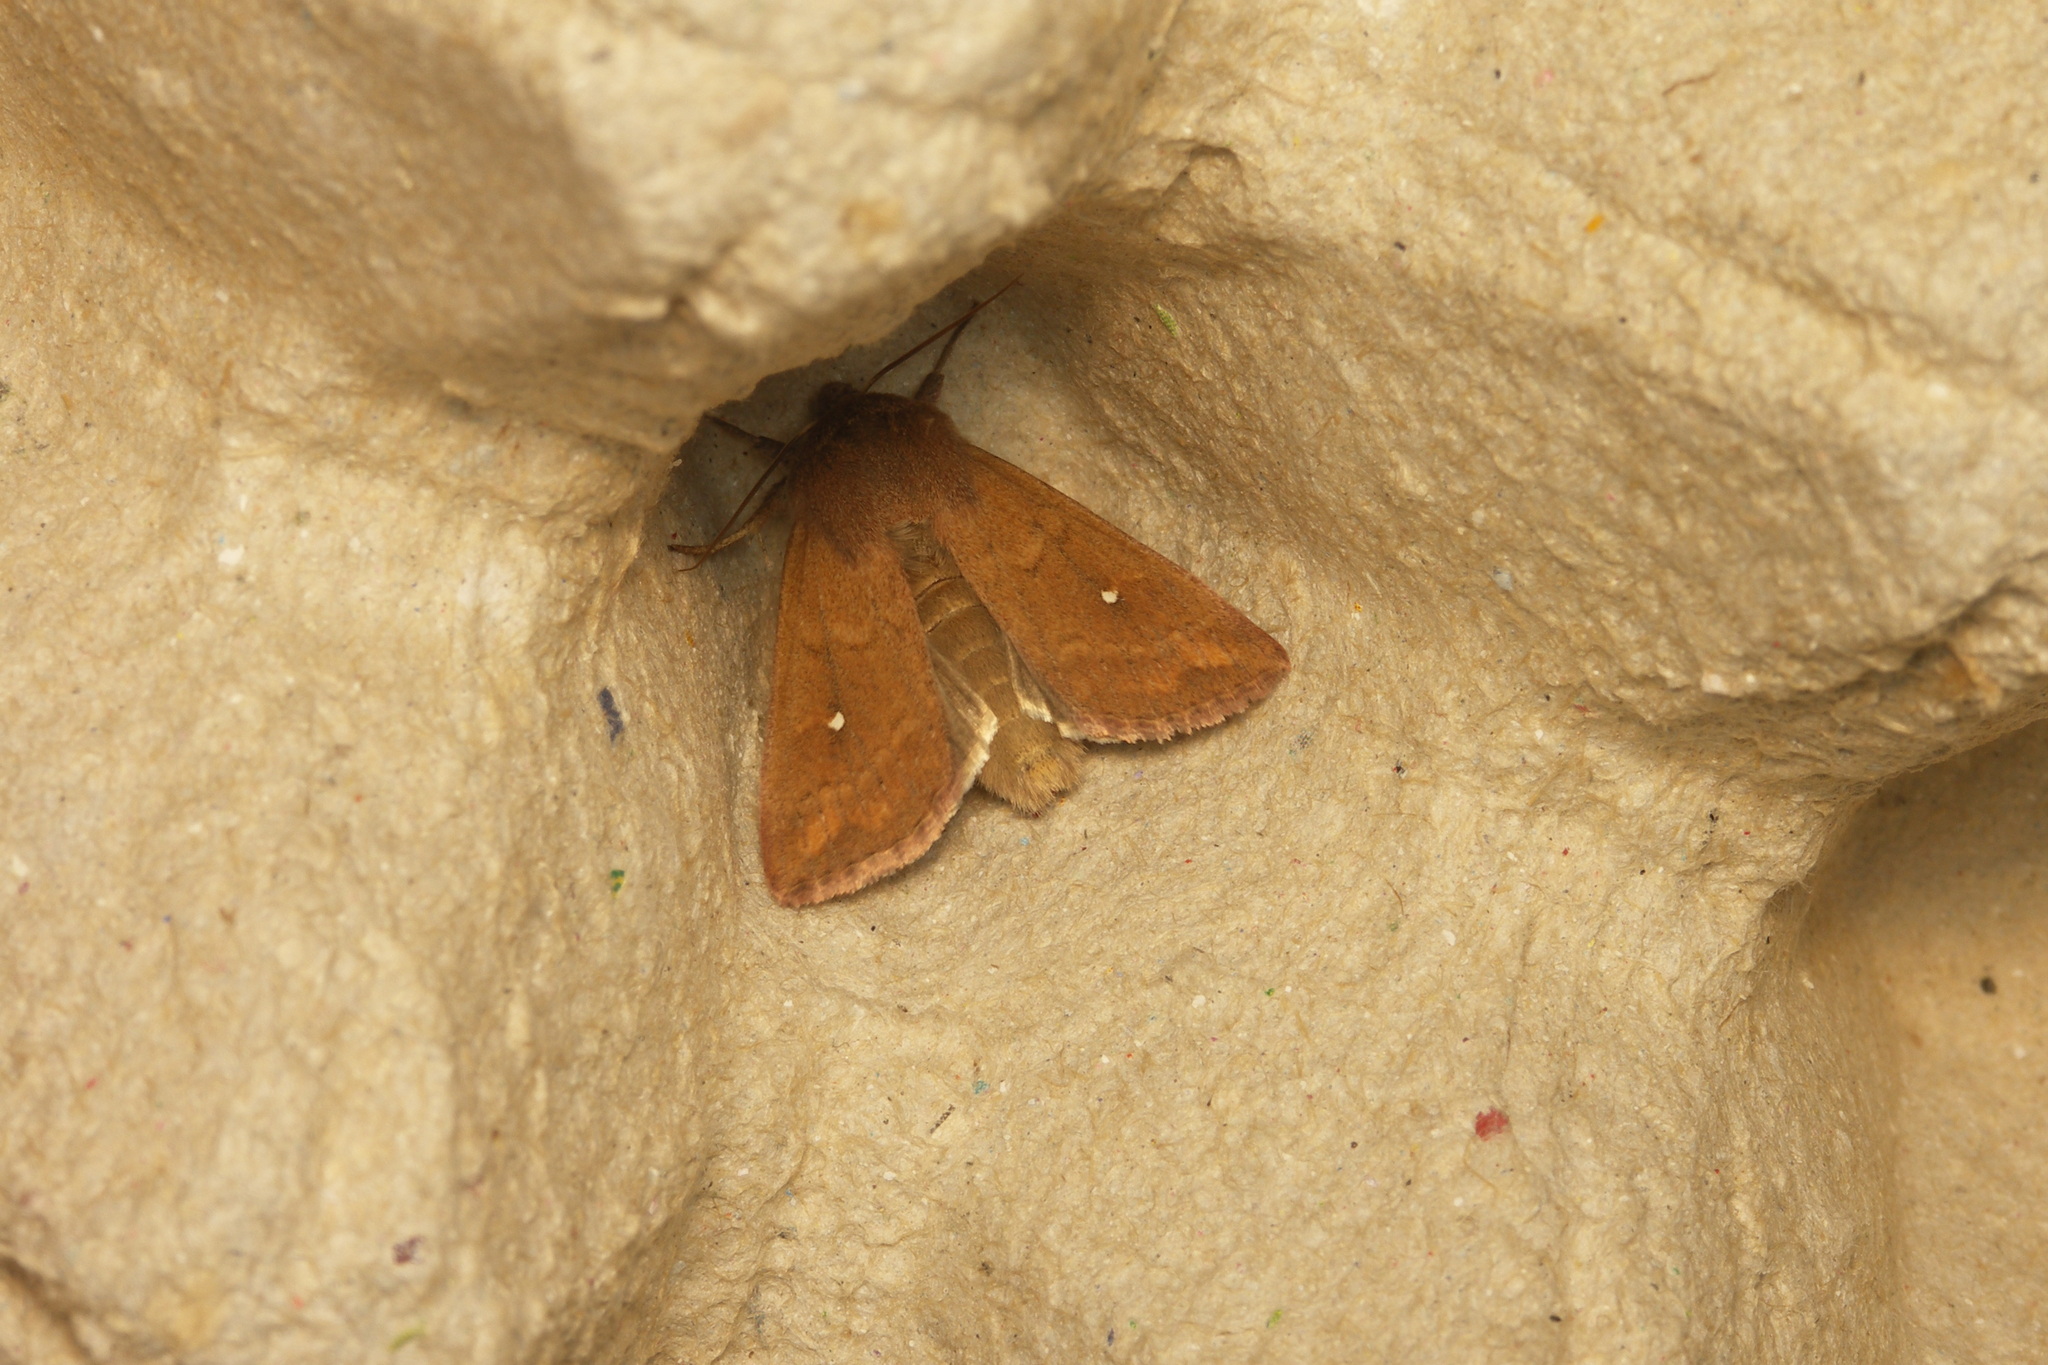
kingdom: Animalia
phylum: Arthropoda
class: Insecta
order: Lepidoptera
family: Noctuidae
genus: Mythimna
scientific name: Mythimna albipuncta
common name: White-point
